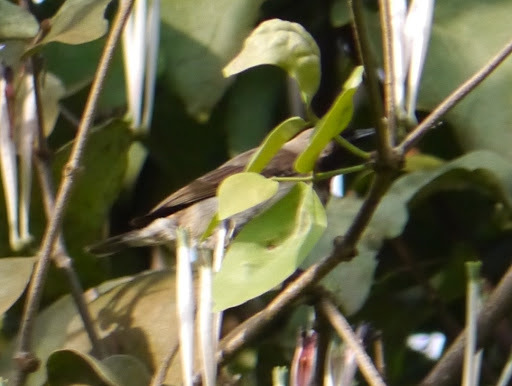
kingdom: Animalia
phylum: Chordata
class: Aves
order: Passeriformes
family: Nectariniidae
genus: Chalcomitra
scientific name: Chalcomitra fuliginosa
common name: Carmelite sunbird
